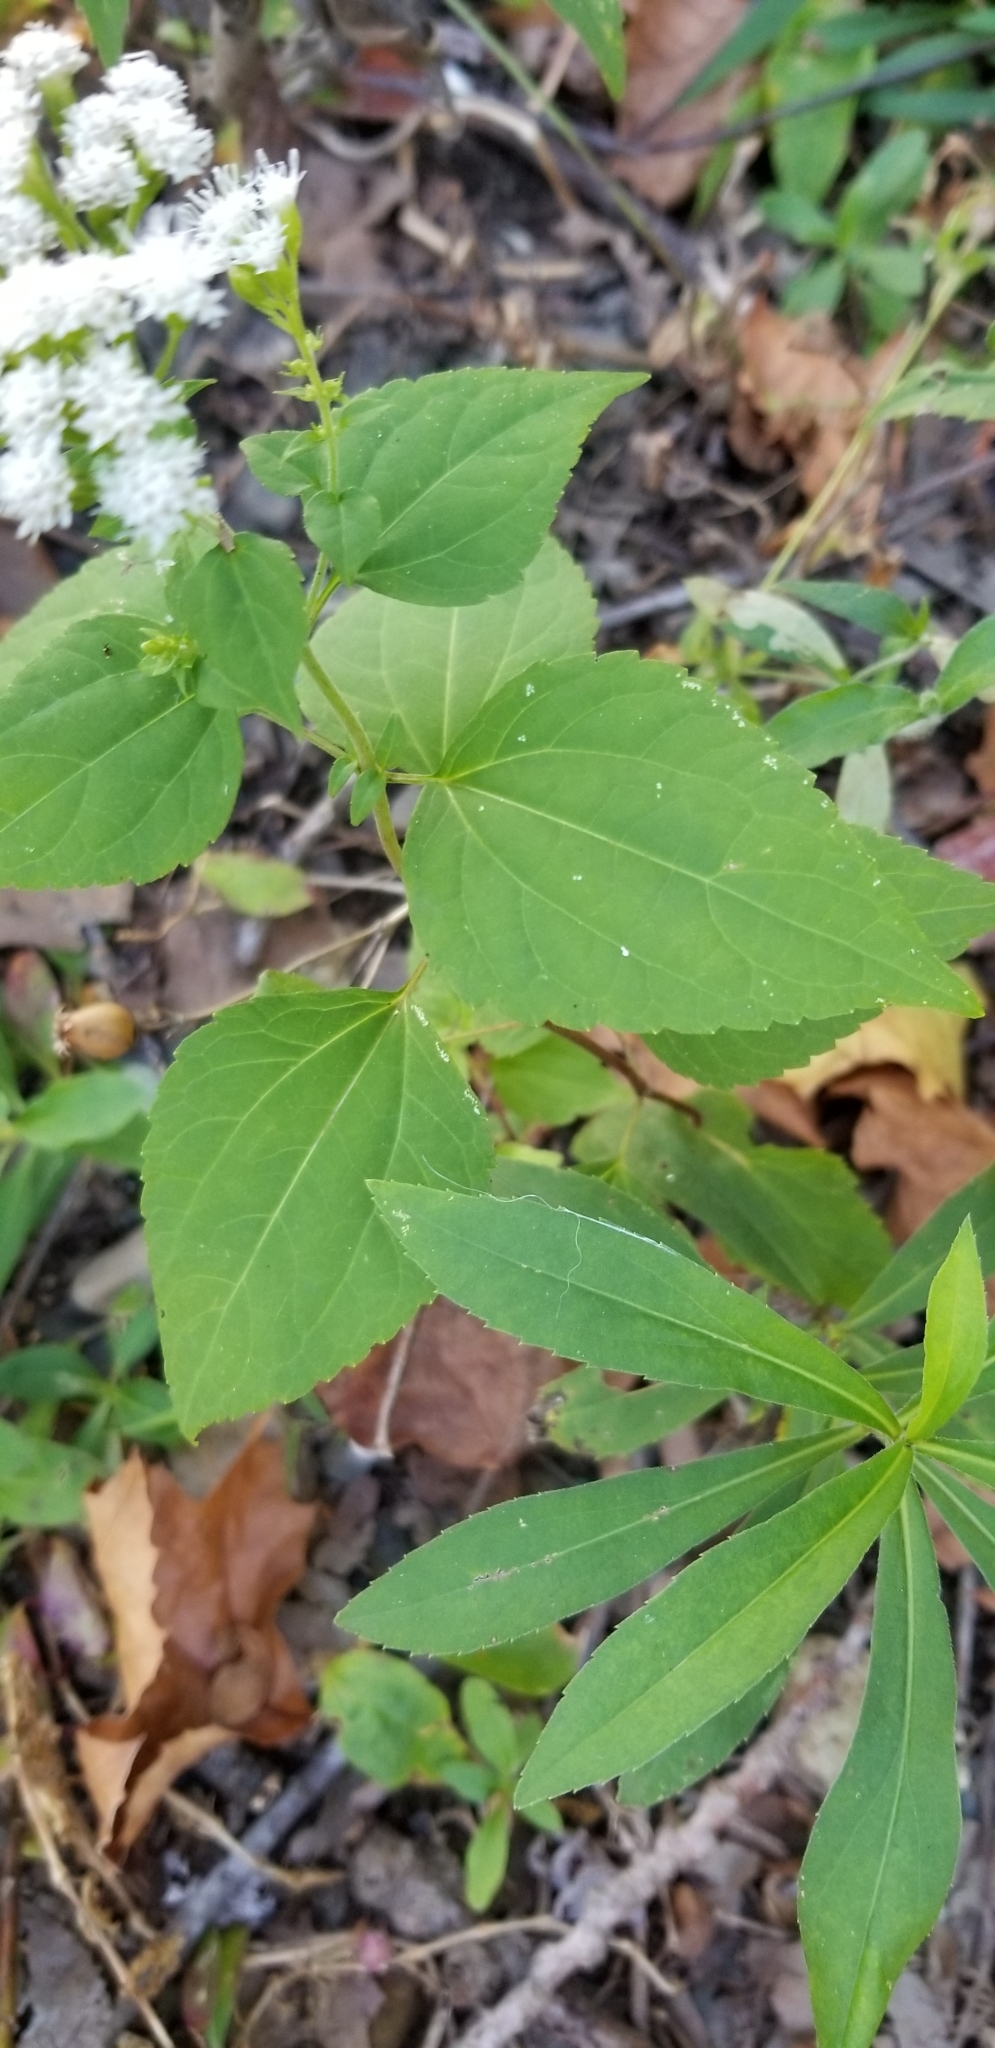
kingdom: Plantae
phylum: Tracheophyta
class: Magnoliopsida
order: Asterales
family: Asteraceae
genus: Ageratina
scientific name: Ageratina altissima
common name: White snakeroot
